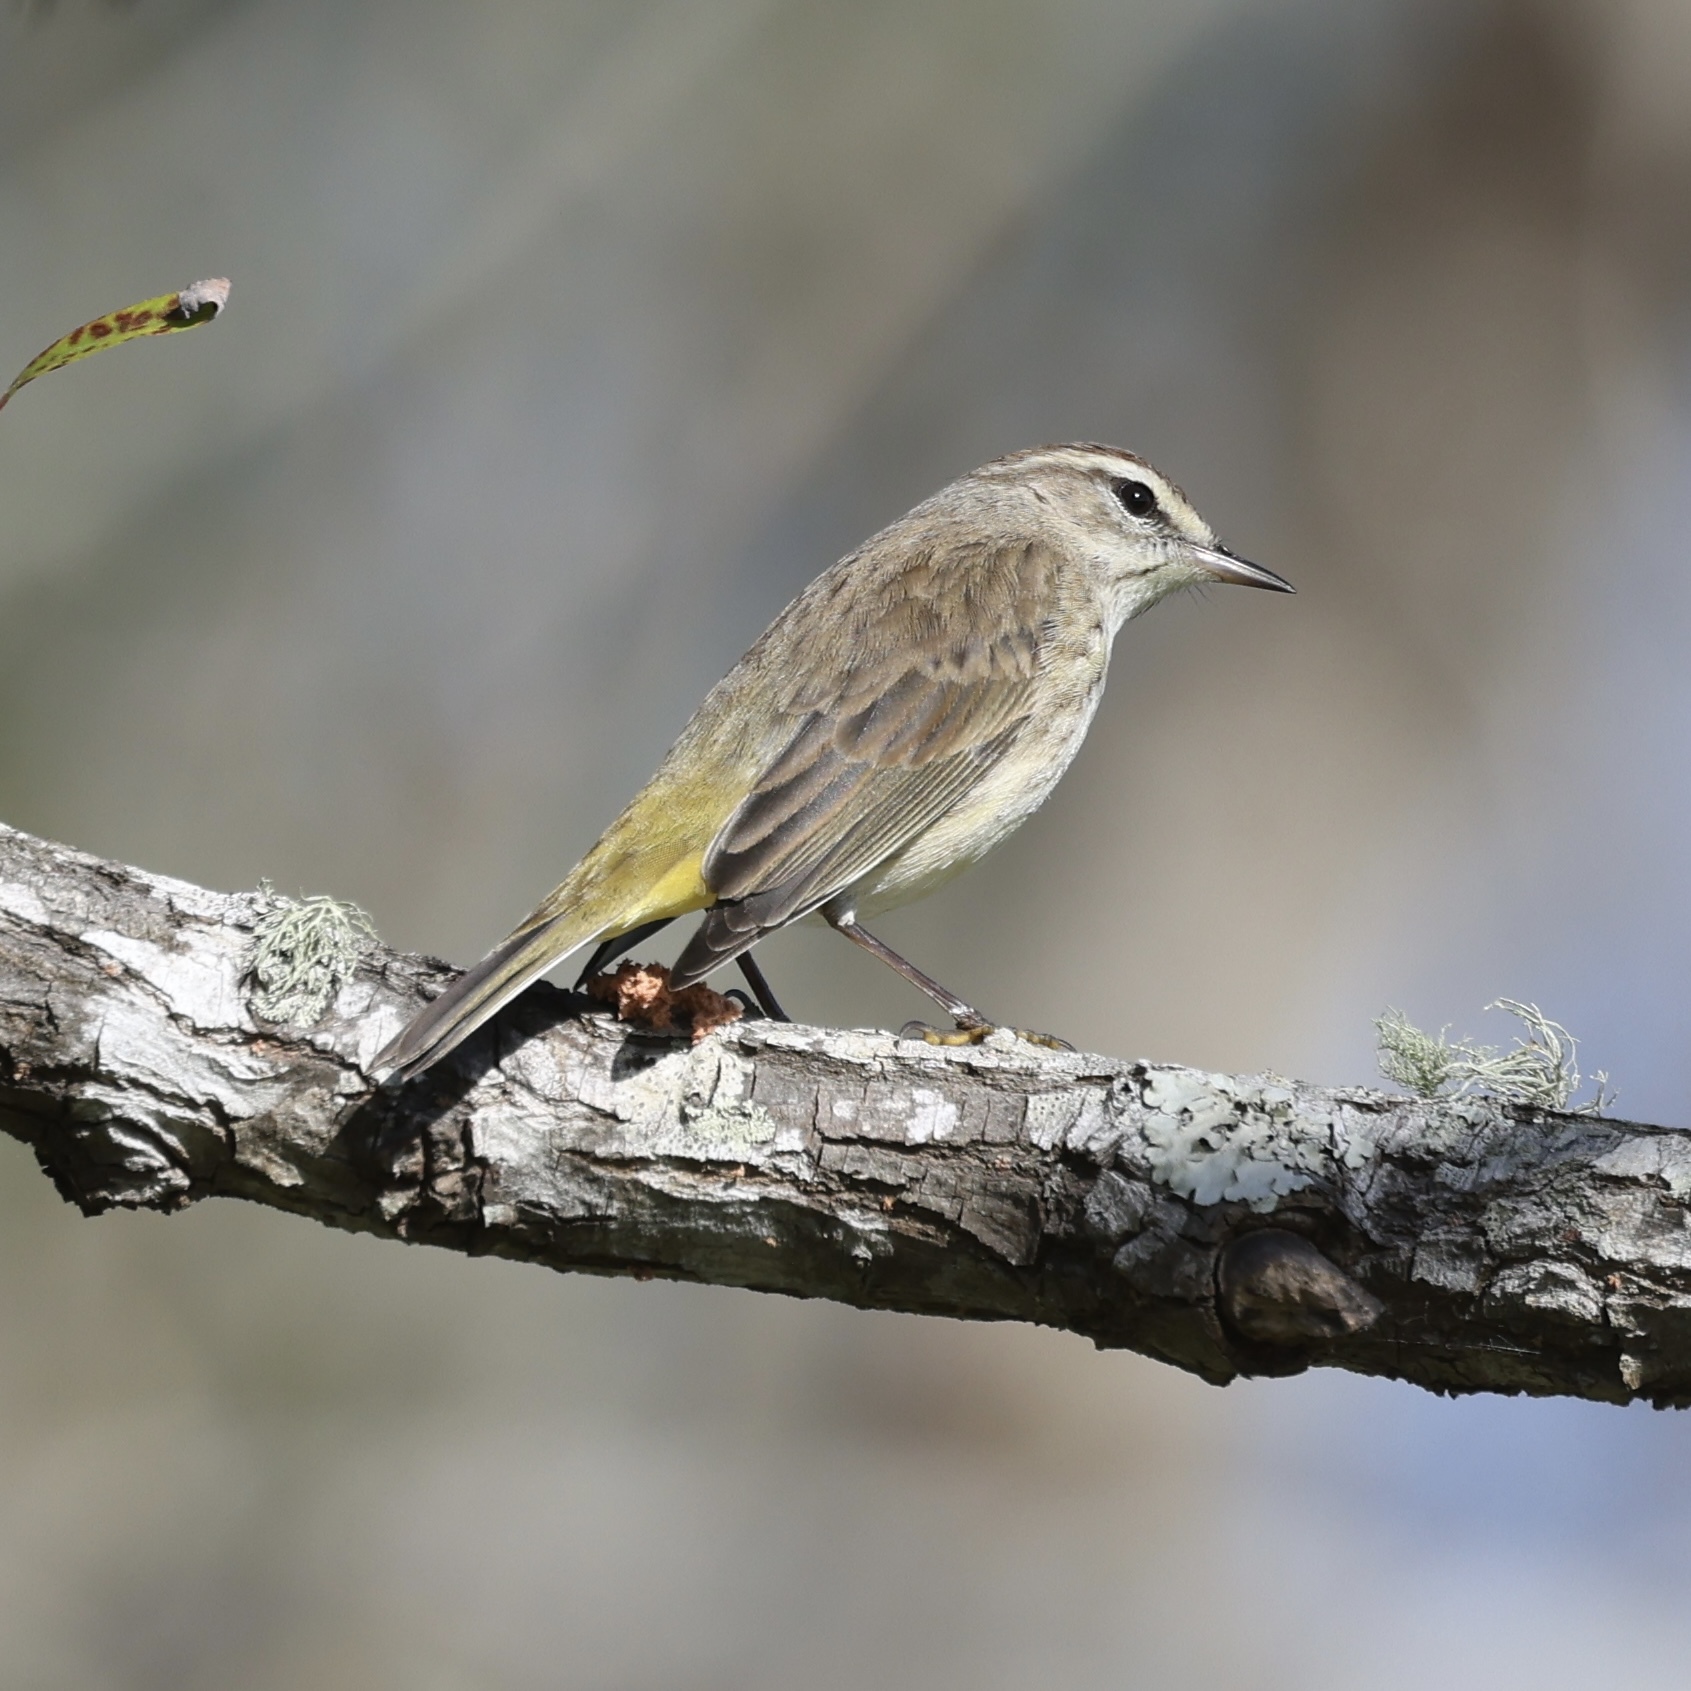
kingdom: Animalia
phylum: Chordata
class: Aves
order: Passeriformes
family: Parulidae
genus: Setophaga
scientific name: Setophaga palmarum
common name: Palm warbler
